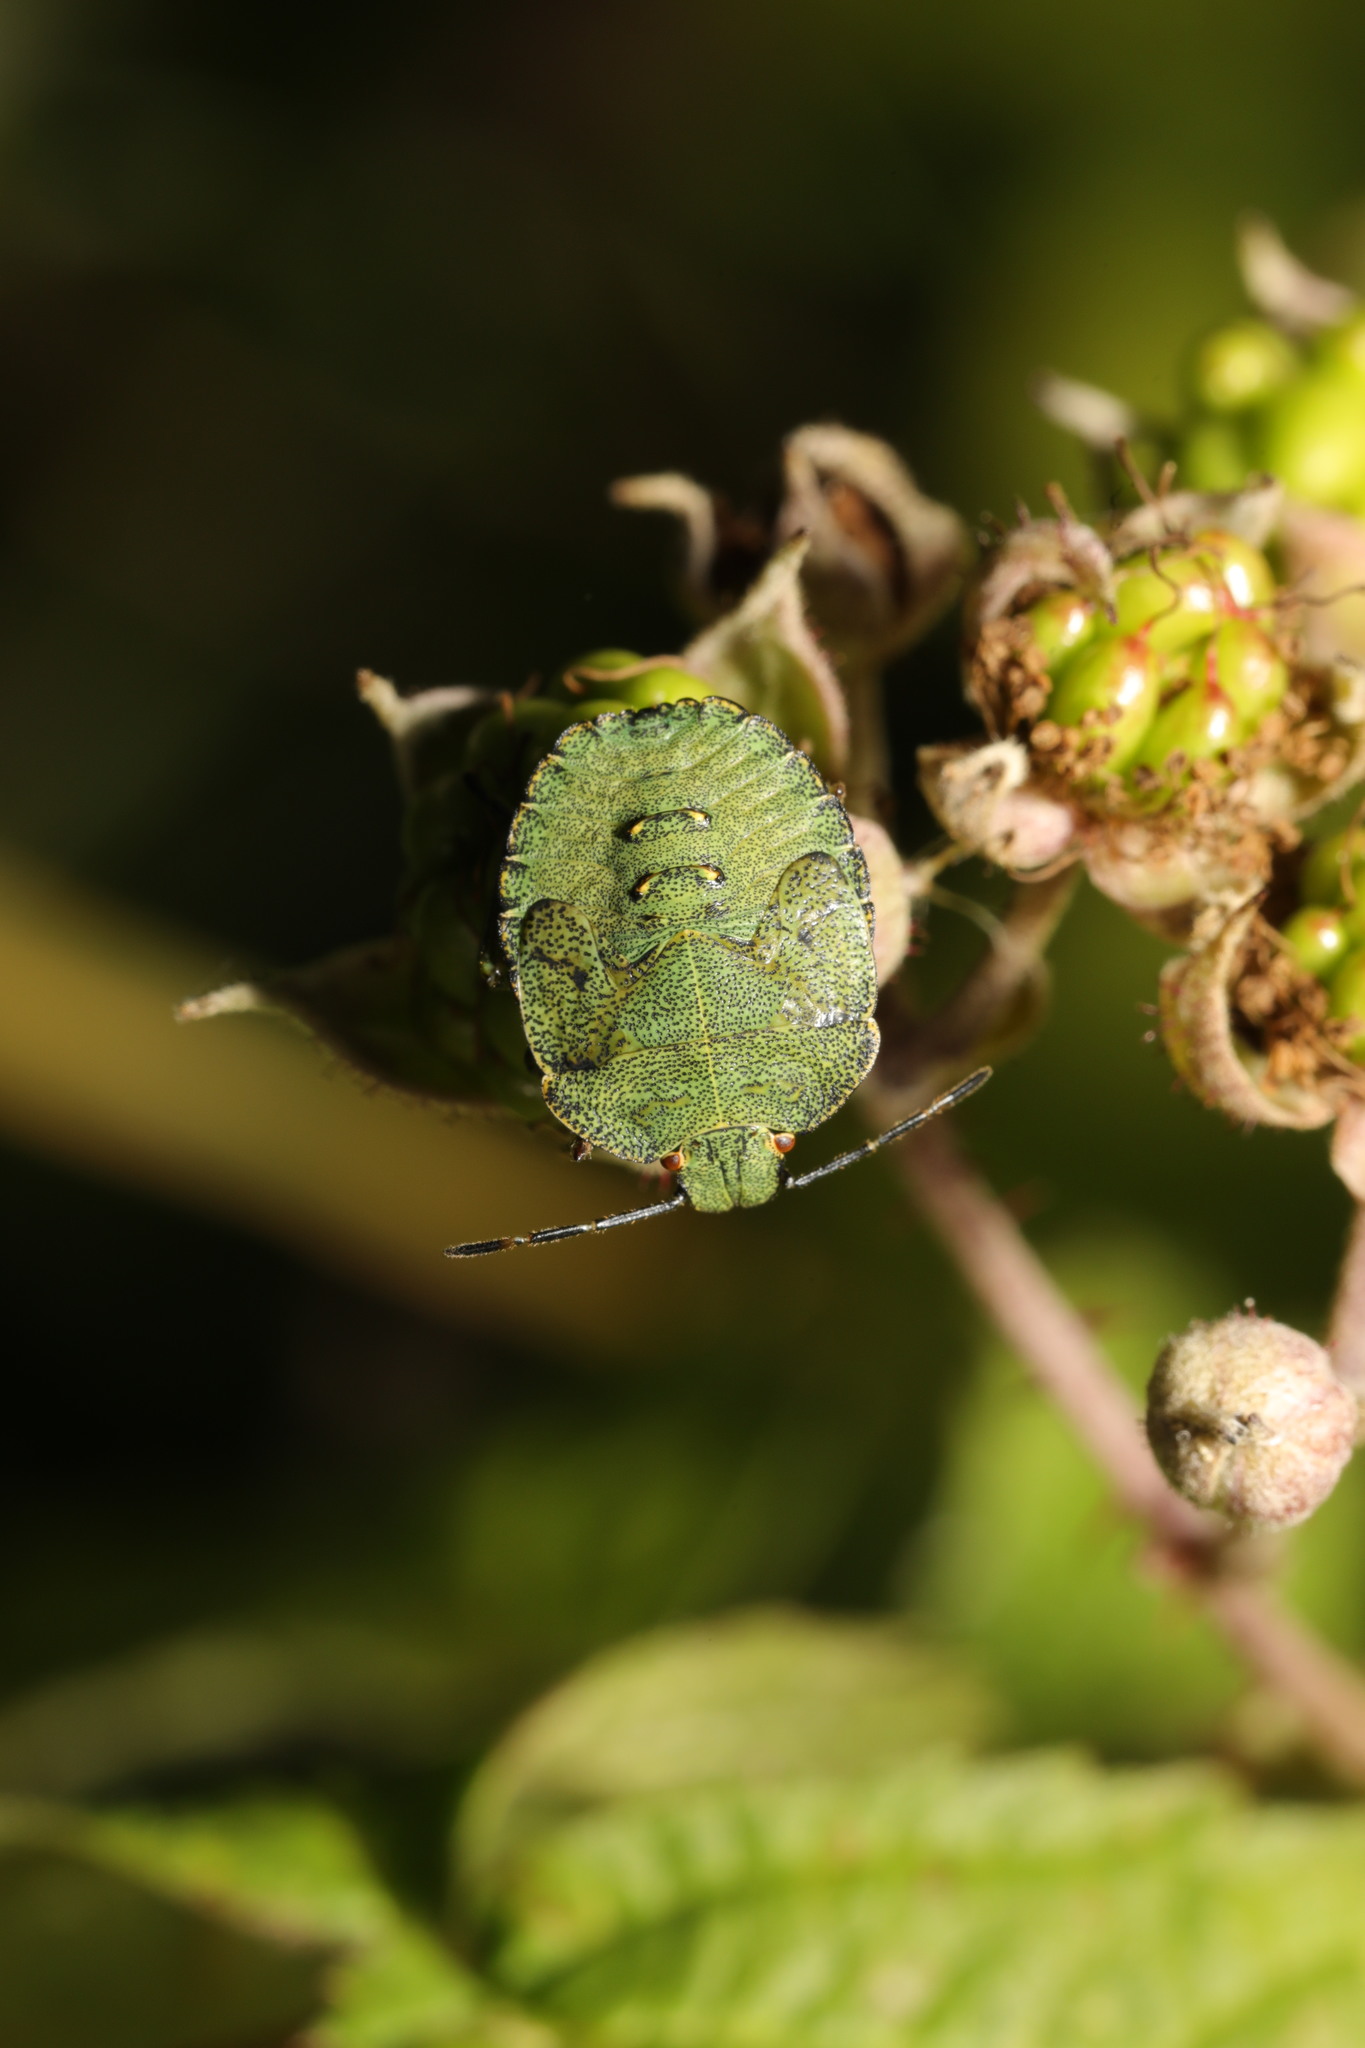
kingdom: Animalia
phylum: Arthropoda
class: Insecta
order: Hemiptera
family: Pentatomidae
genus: Palomena
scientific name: Palomena prasina
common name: Green shieldbug
